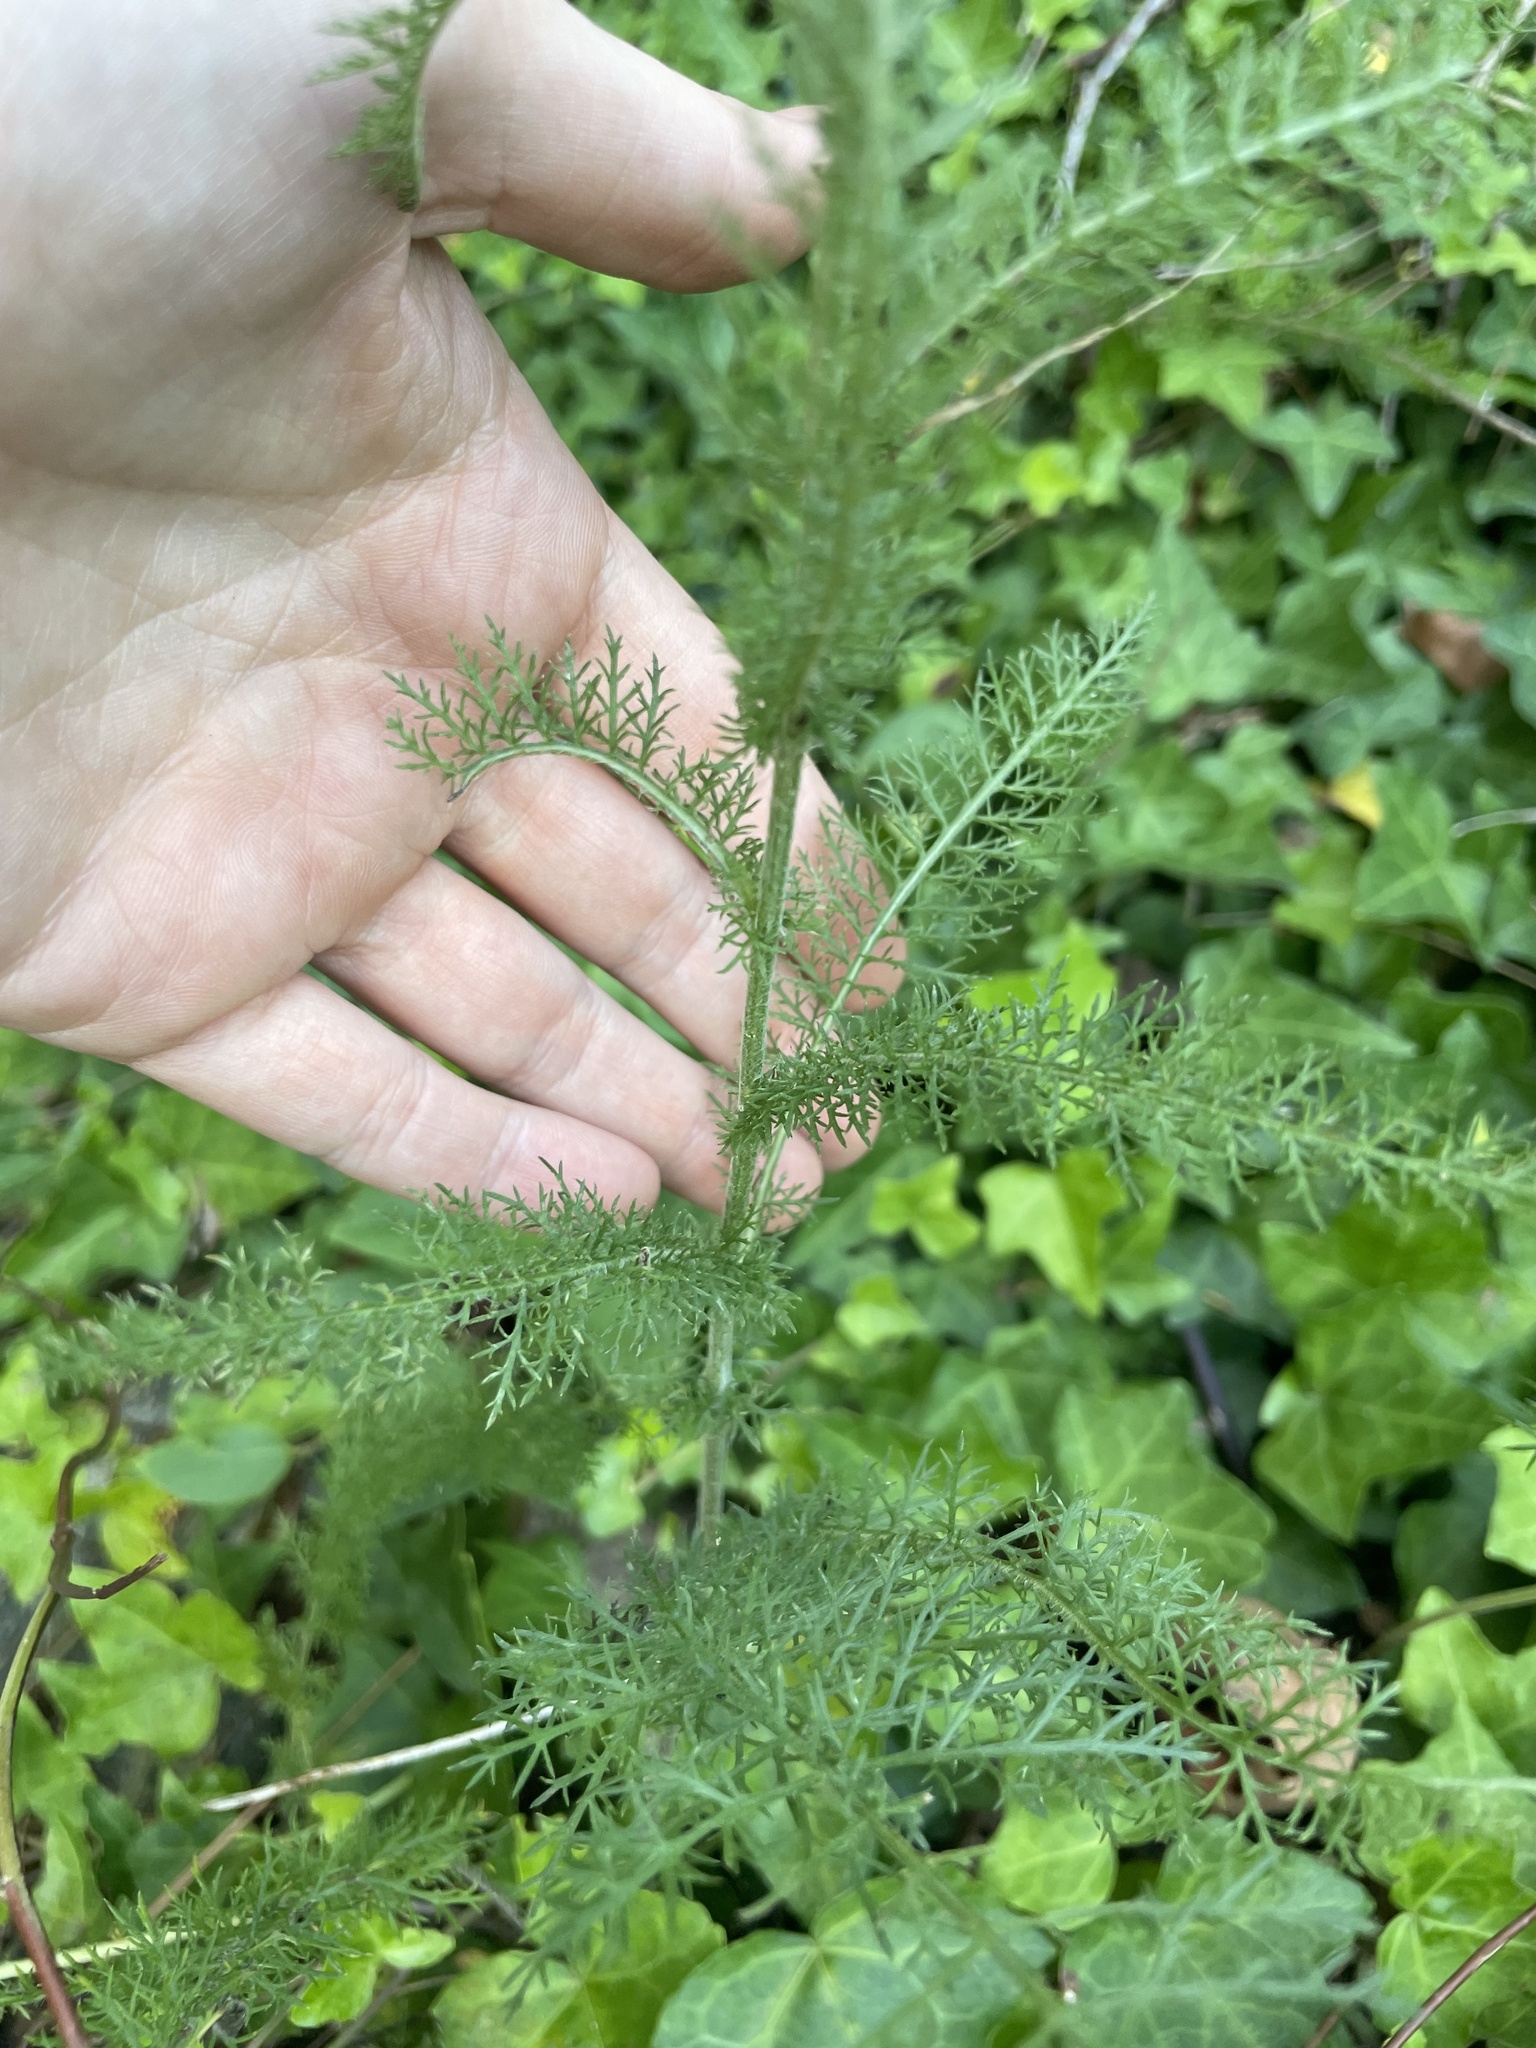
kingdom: Plantae
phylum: Tracheophyta
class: Magnoliopsida
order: Asterales
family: Asteraceae
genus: Achillea
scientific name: Achillea millefolium
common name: Yarrow
